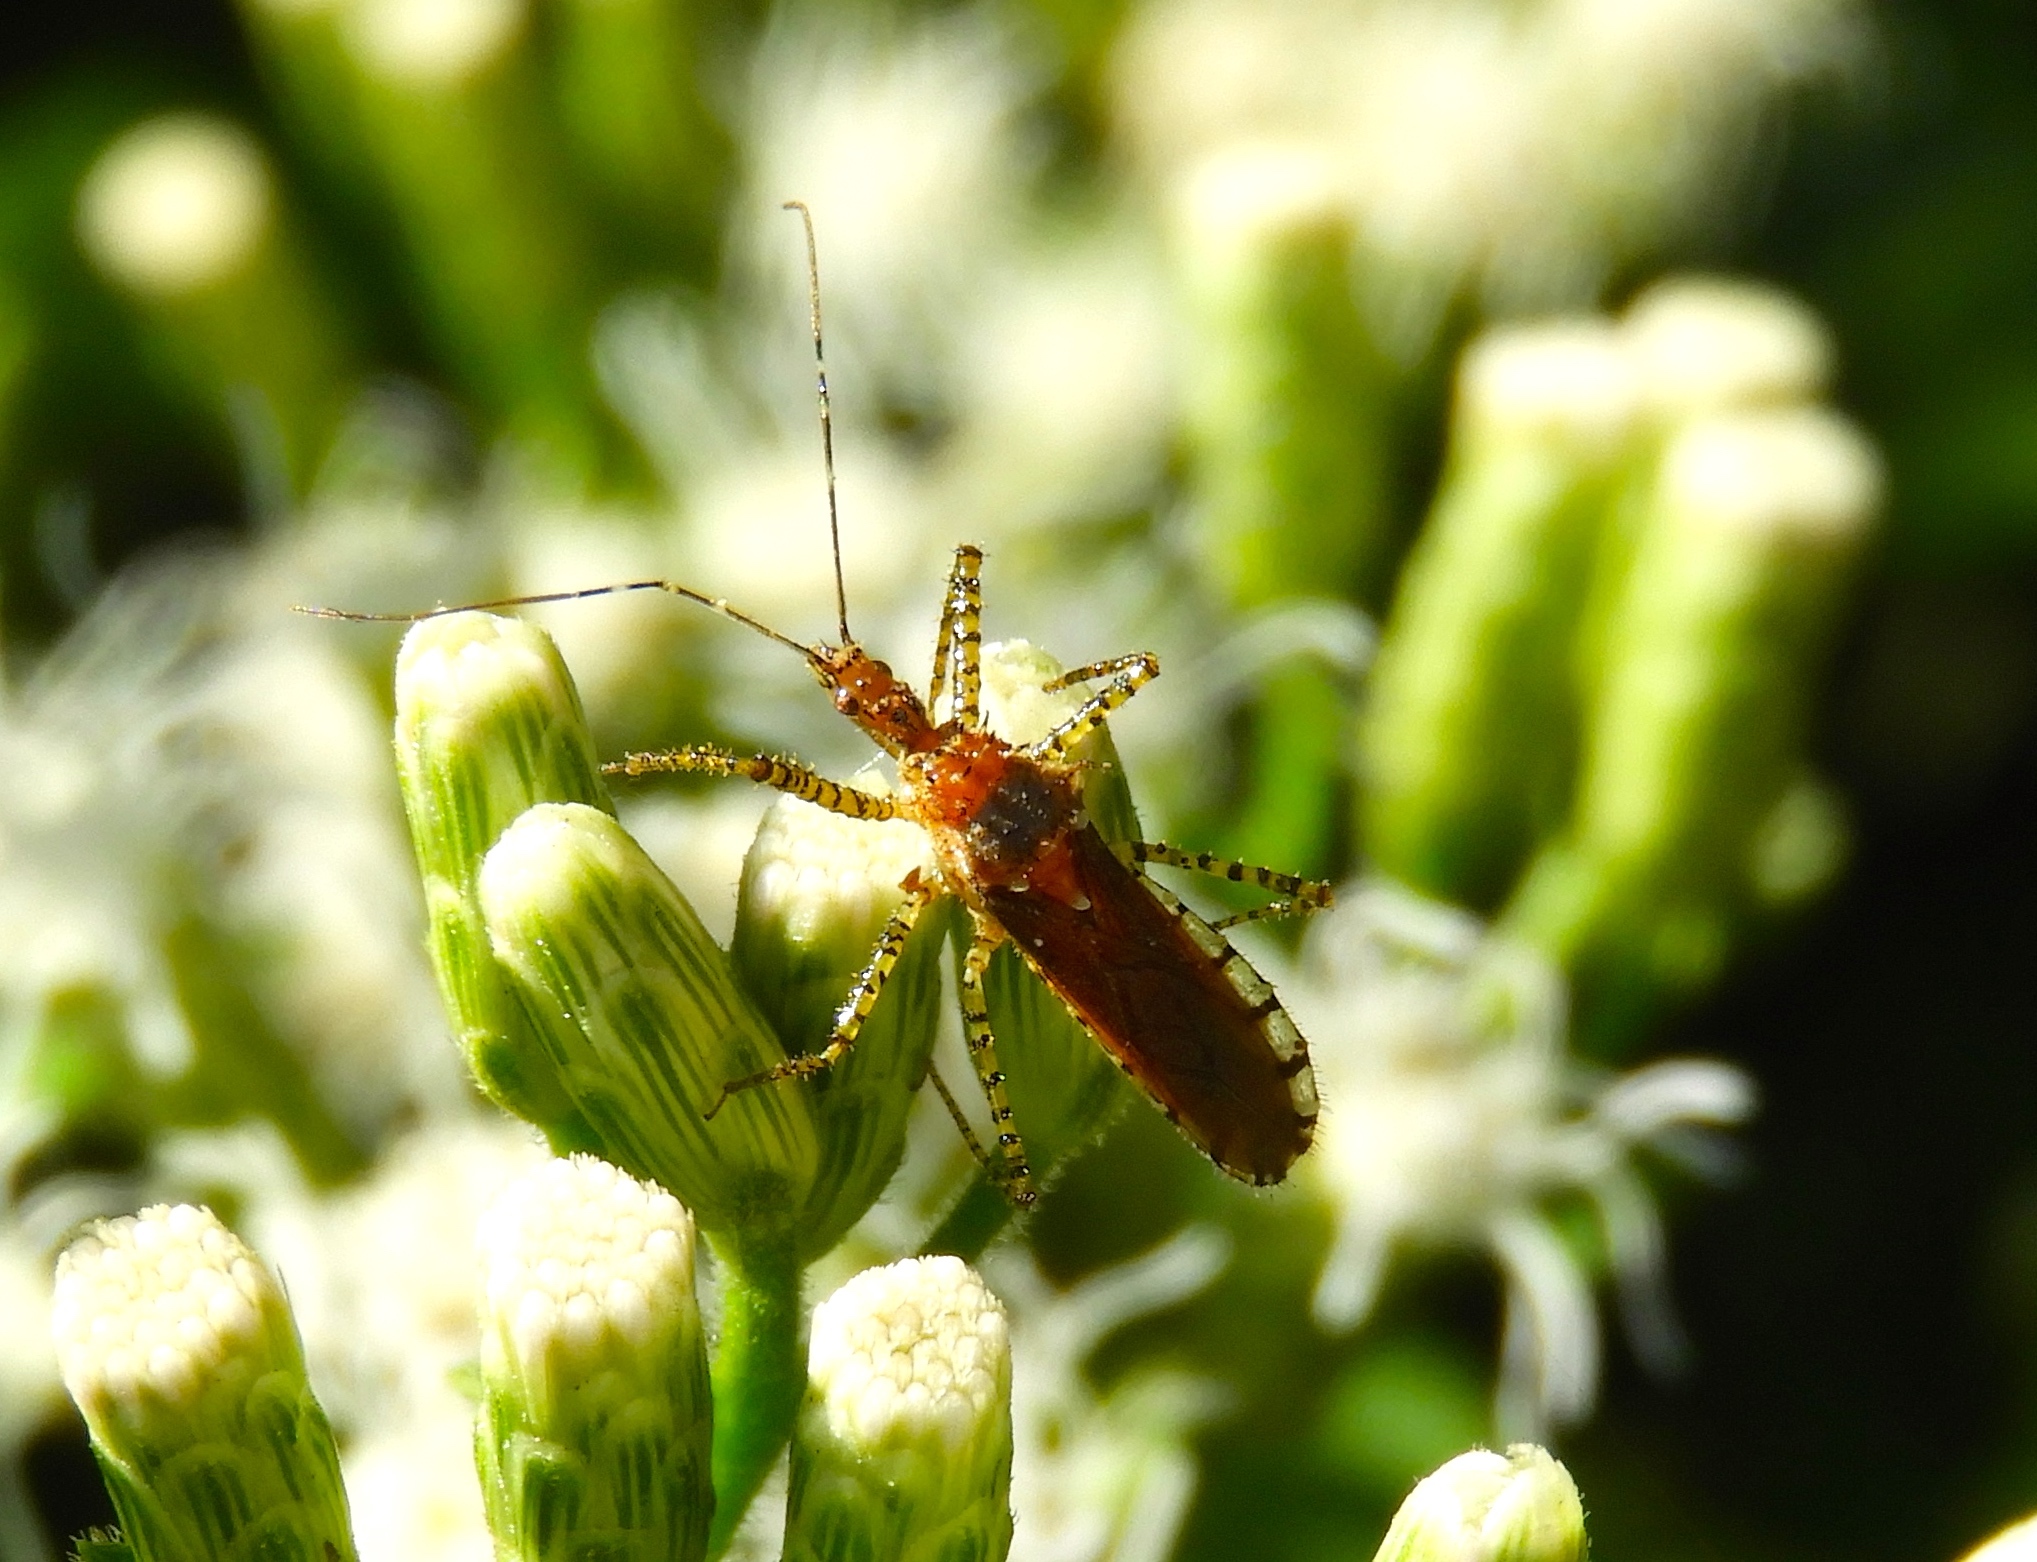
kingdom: Animalia
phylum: Arthropoda
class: Insecta
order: Hemiptera
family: Reduviidae
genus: Pselliopus
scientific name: Pselliopus
